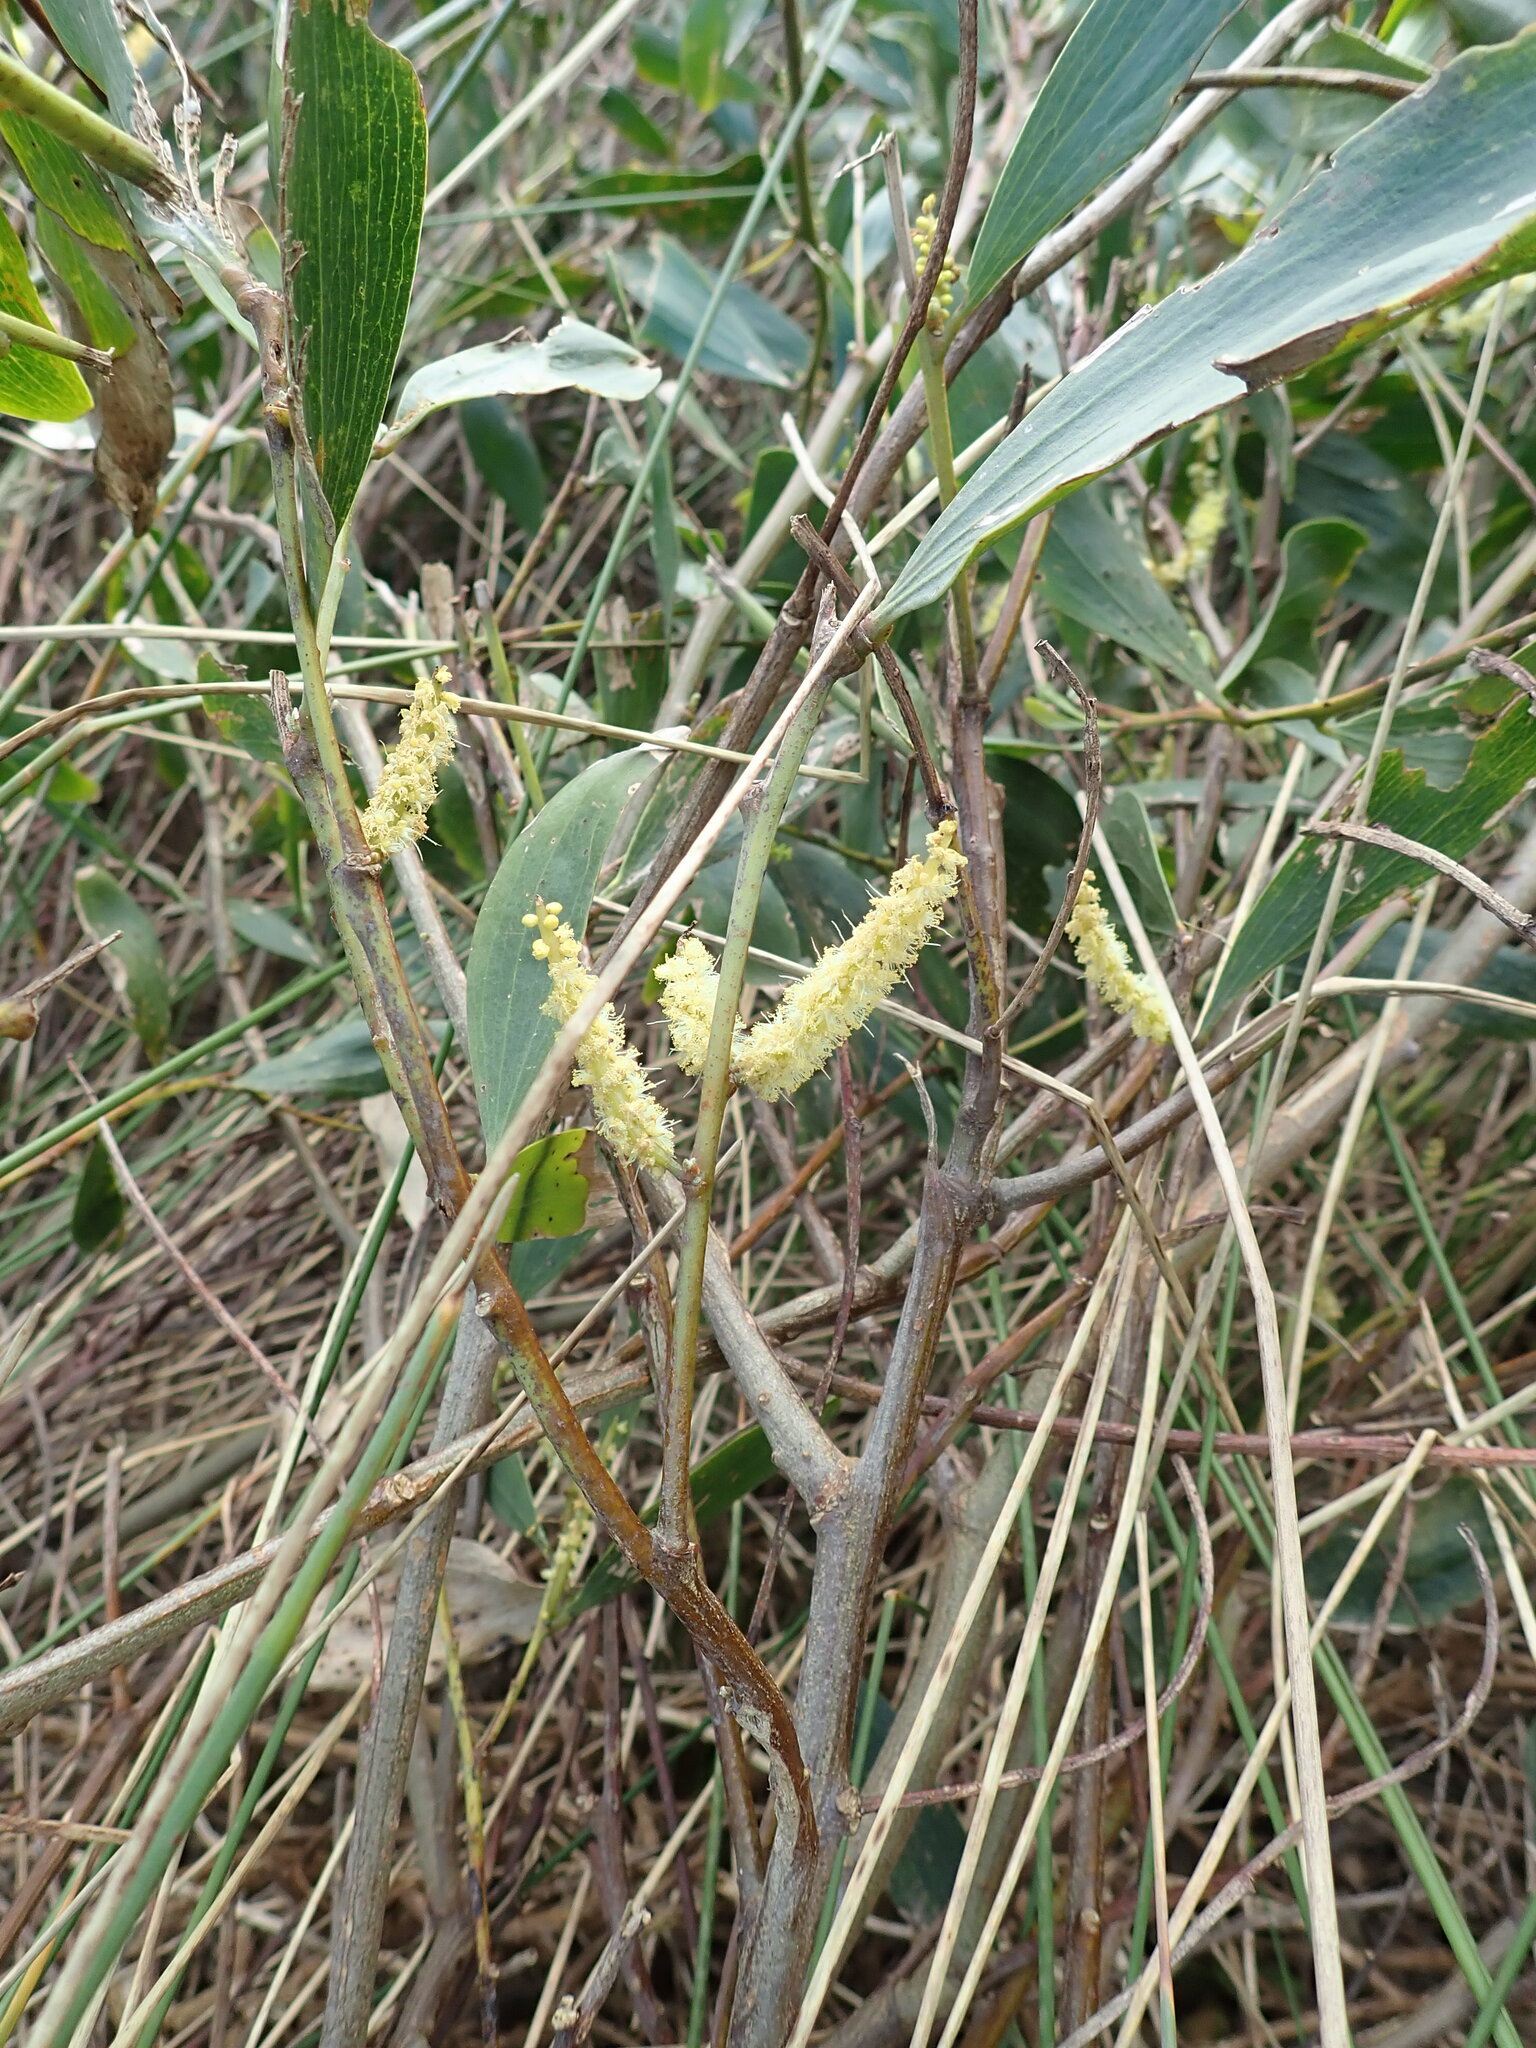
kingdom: Plantae
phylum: Tracheophyta
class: Magnoliopsida
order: Fabales
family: Fabaceae
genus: Acacia
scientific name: Acacia longifolia
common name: Sydney golden wattle
